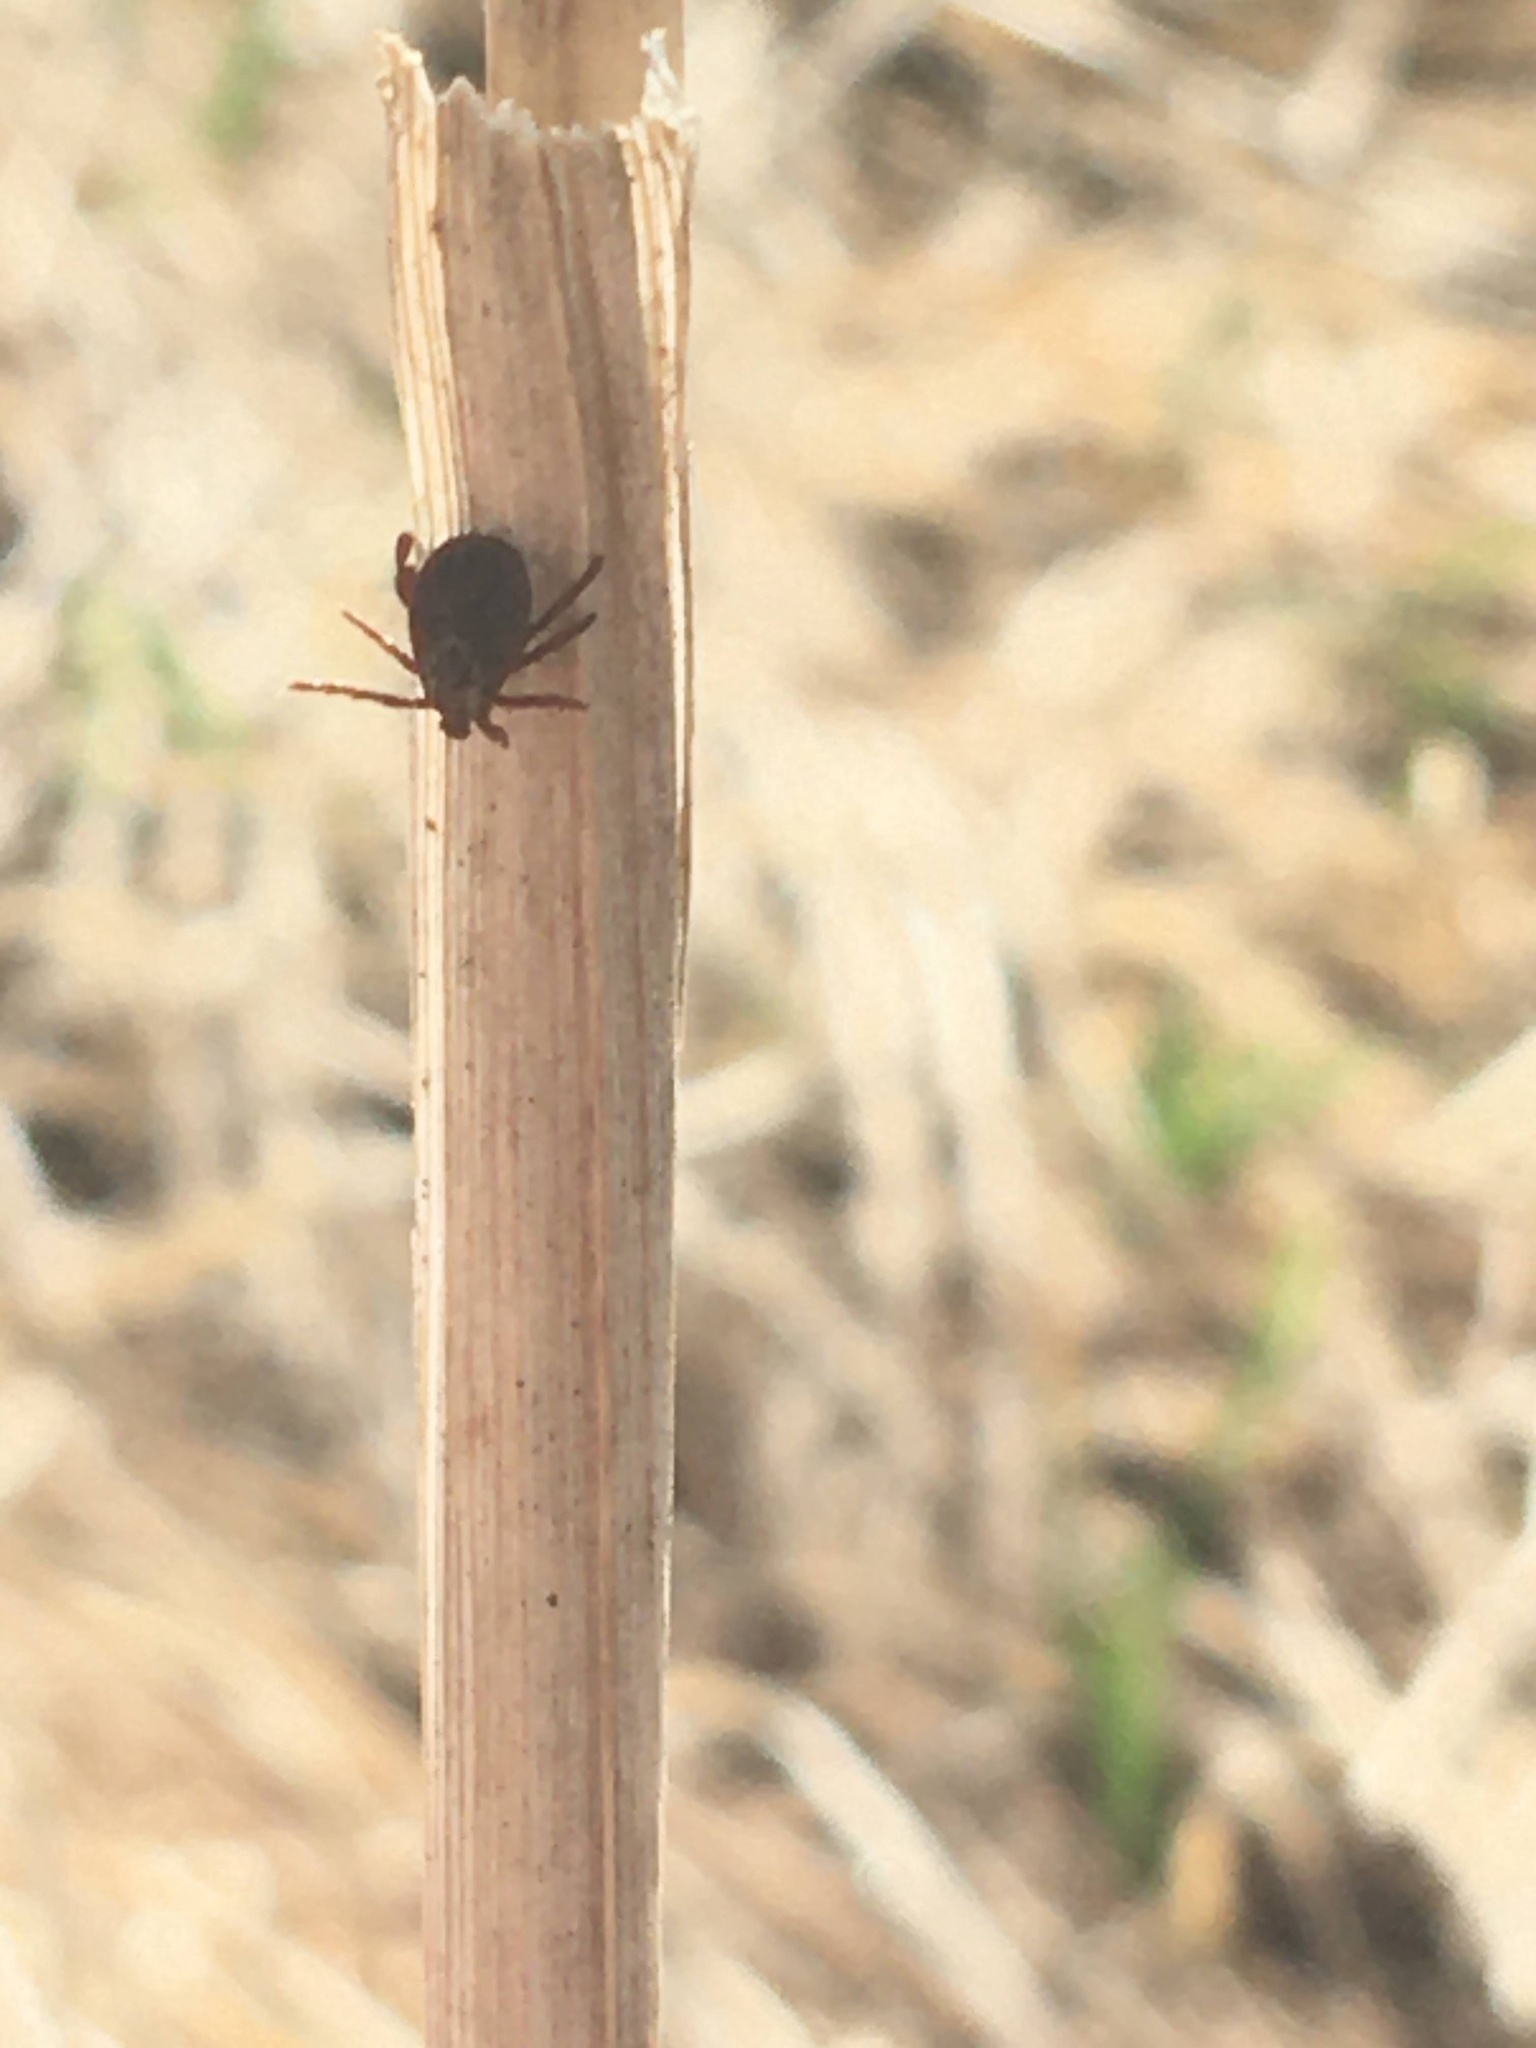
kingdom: Animalia
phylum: Arthropoda
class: Arachnida
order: Ixodida
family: Ixodidae
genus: Dermacentor
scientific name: Dermacentor
